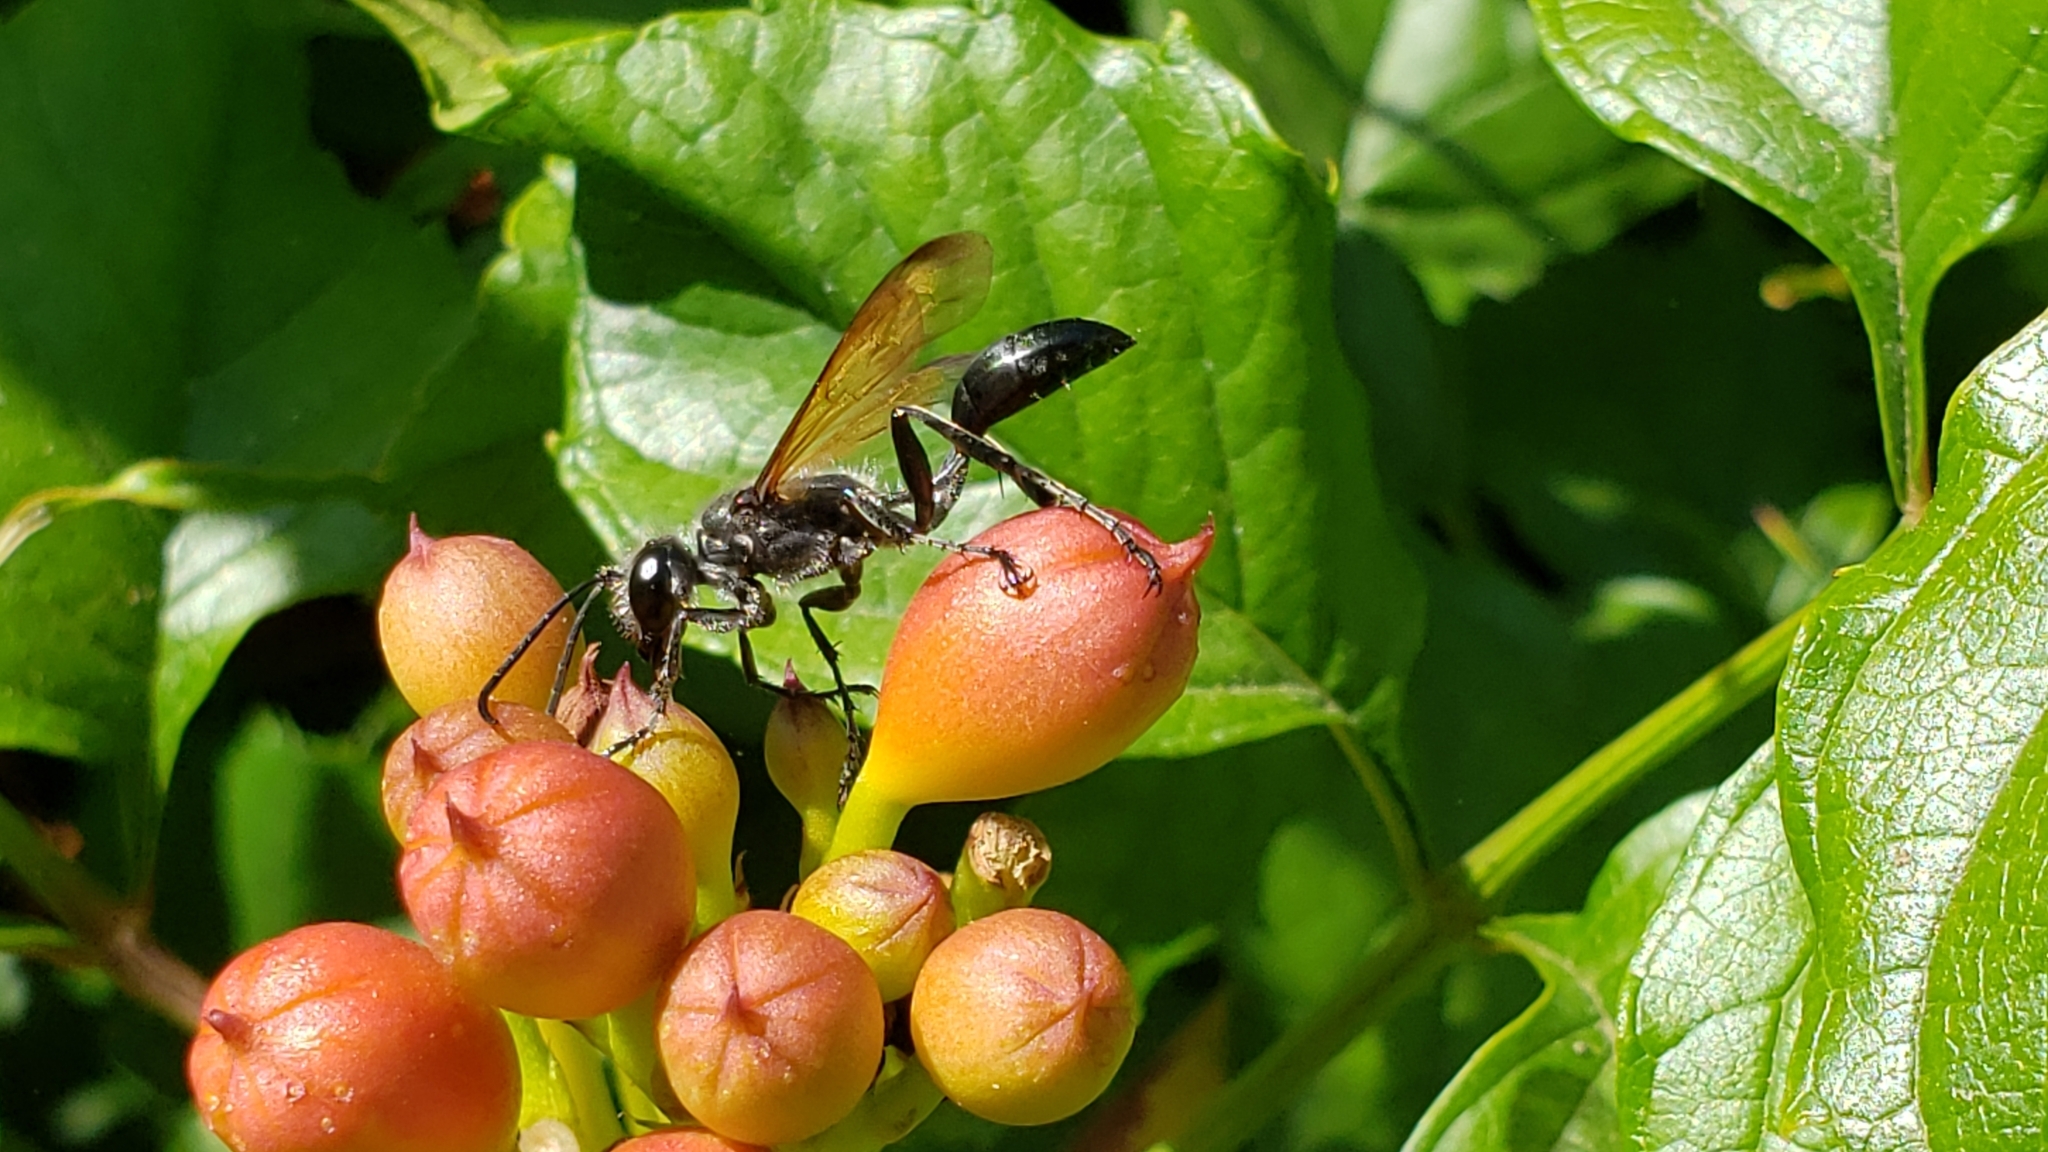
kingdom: Animalia
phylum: Arthropoda
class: Insecta
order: Hymenoptera
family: Sphecidae
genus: Isodontia
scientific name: Isodontia mexicana
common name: Mud dauber
